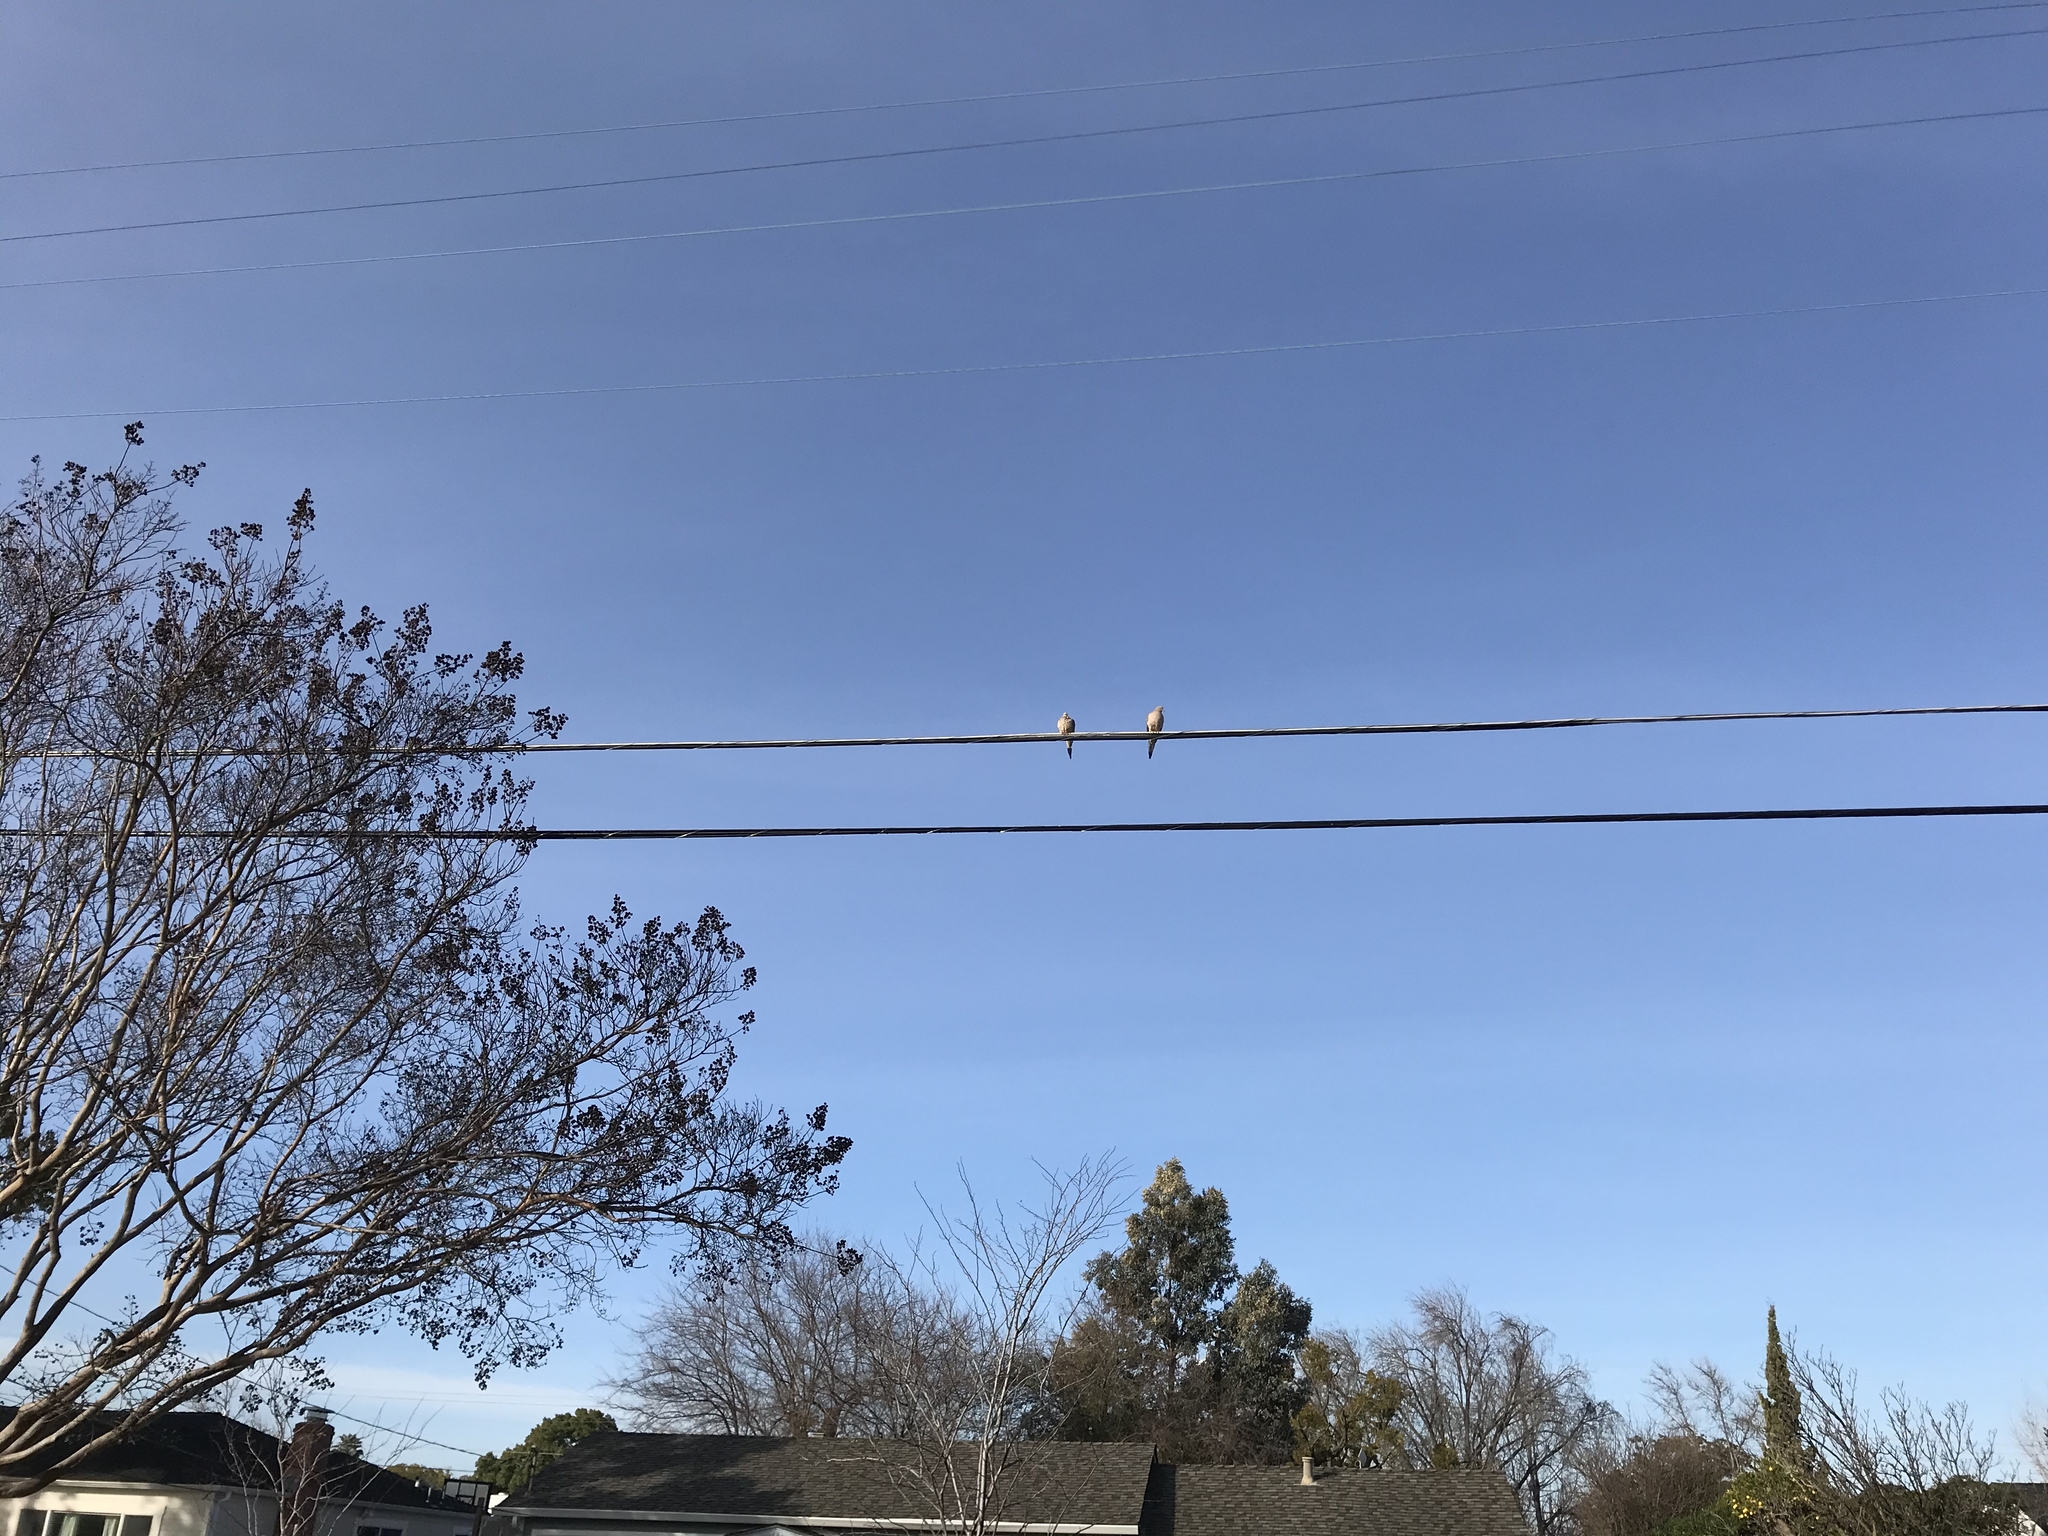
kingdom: Animalia
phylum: Chordata
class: Aves
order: Columbiformes
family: Columbidae
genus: Zenaida
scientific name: Zenaida macroura
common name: Mourning dove
